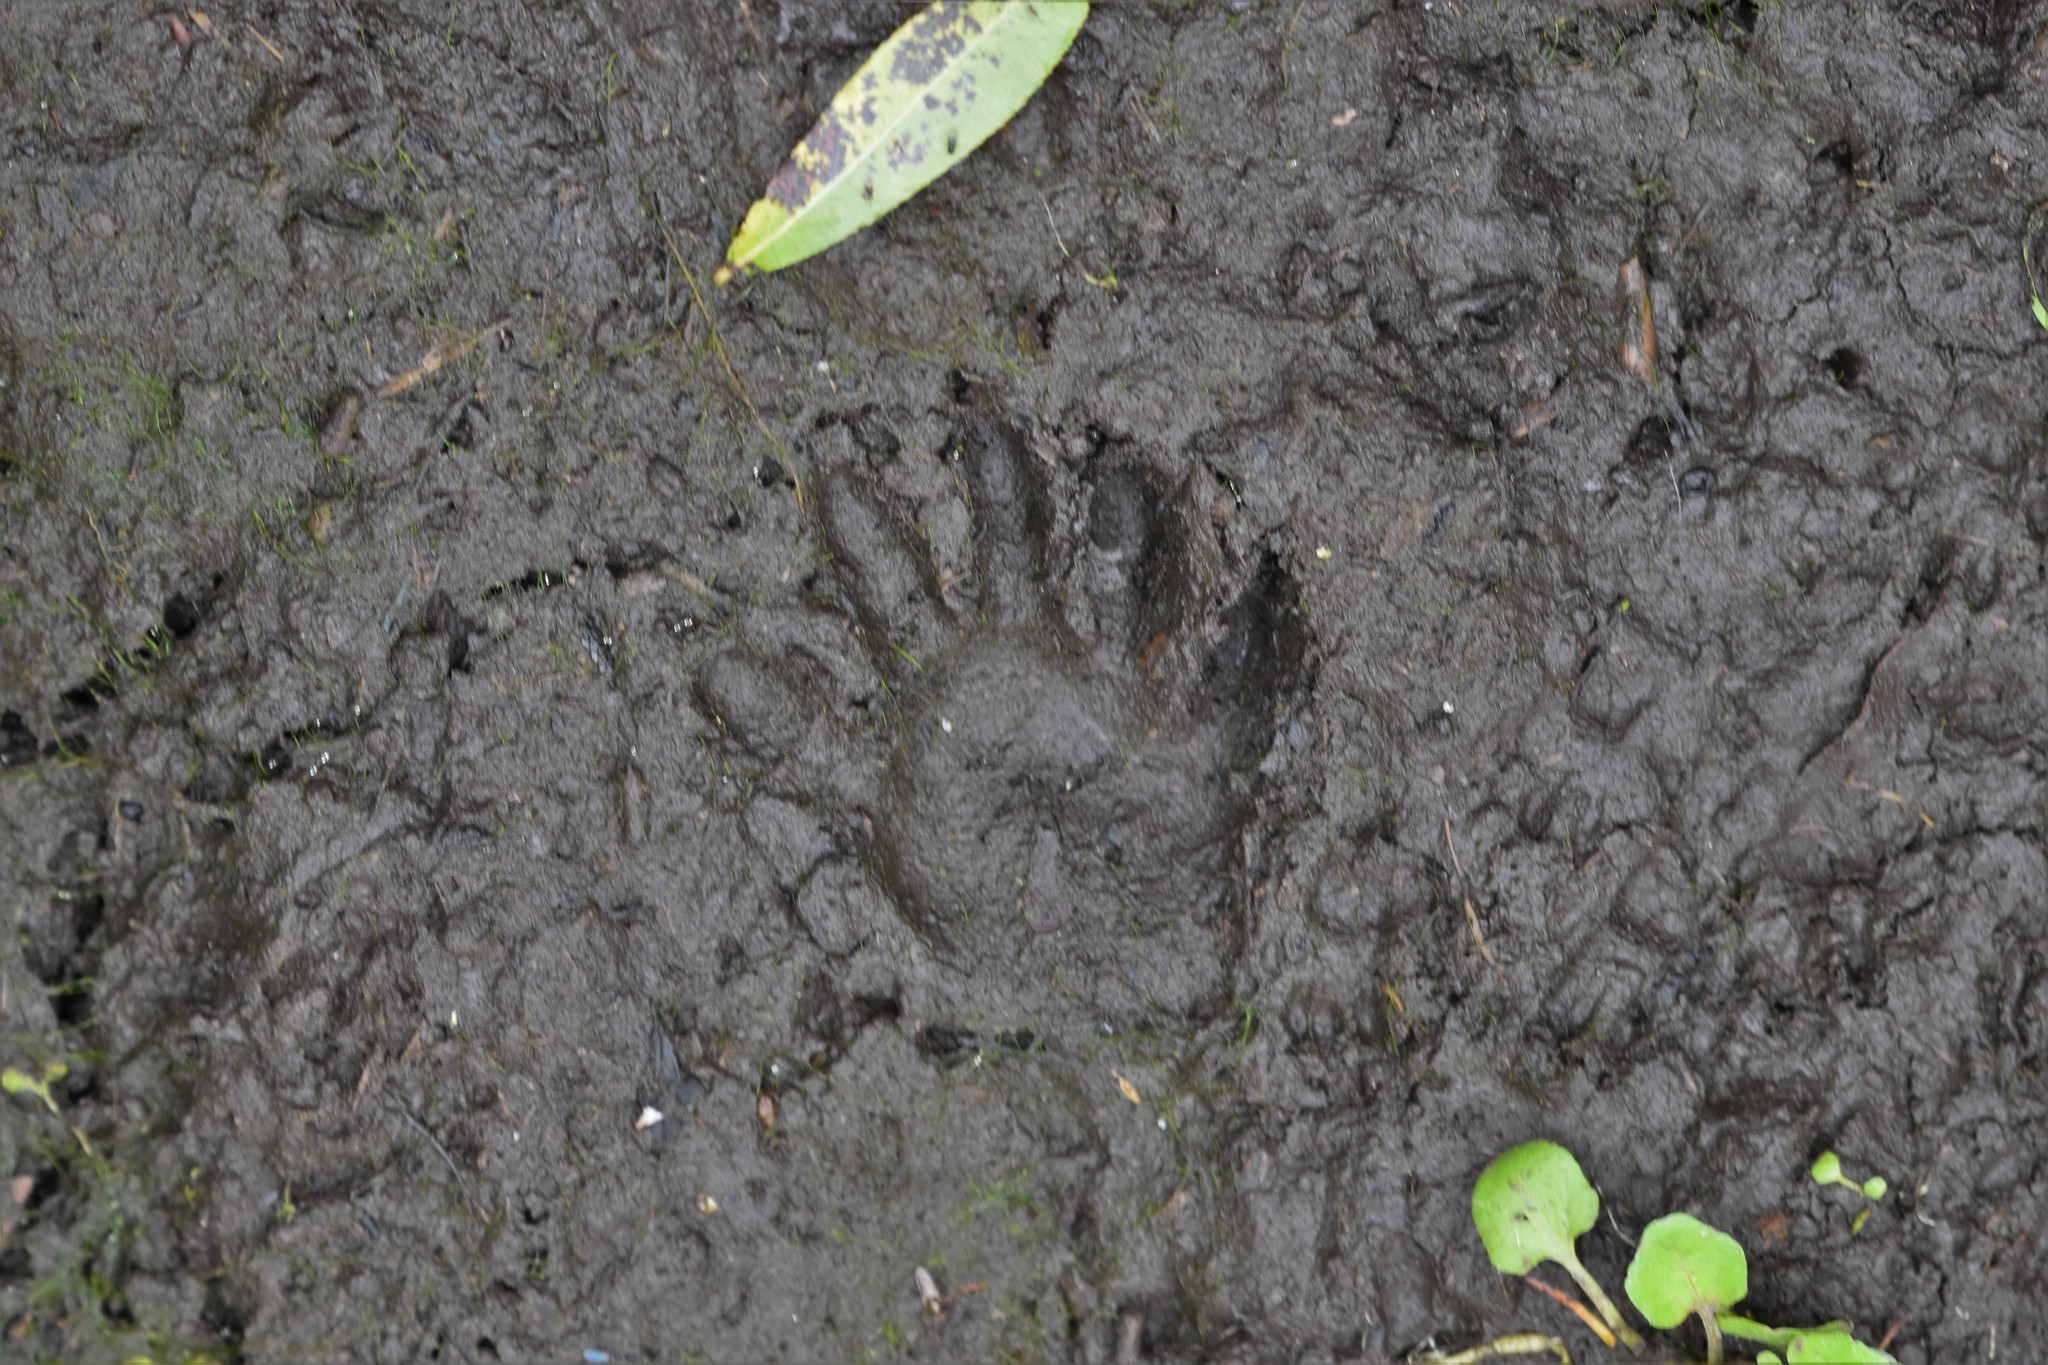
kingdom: Animalia
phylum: Chordata
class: Mammalia
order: Carnivora
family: Procyonidae
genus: Procyon
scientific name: Procyon lotor
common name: Raccoon
